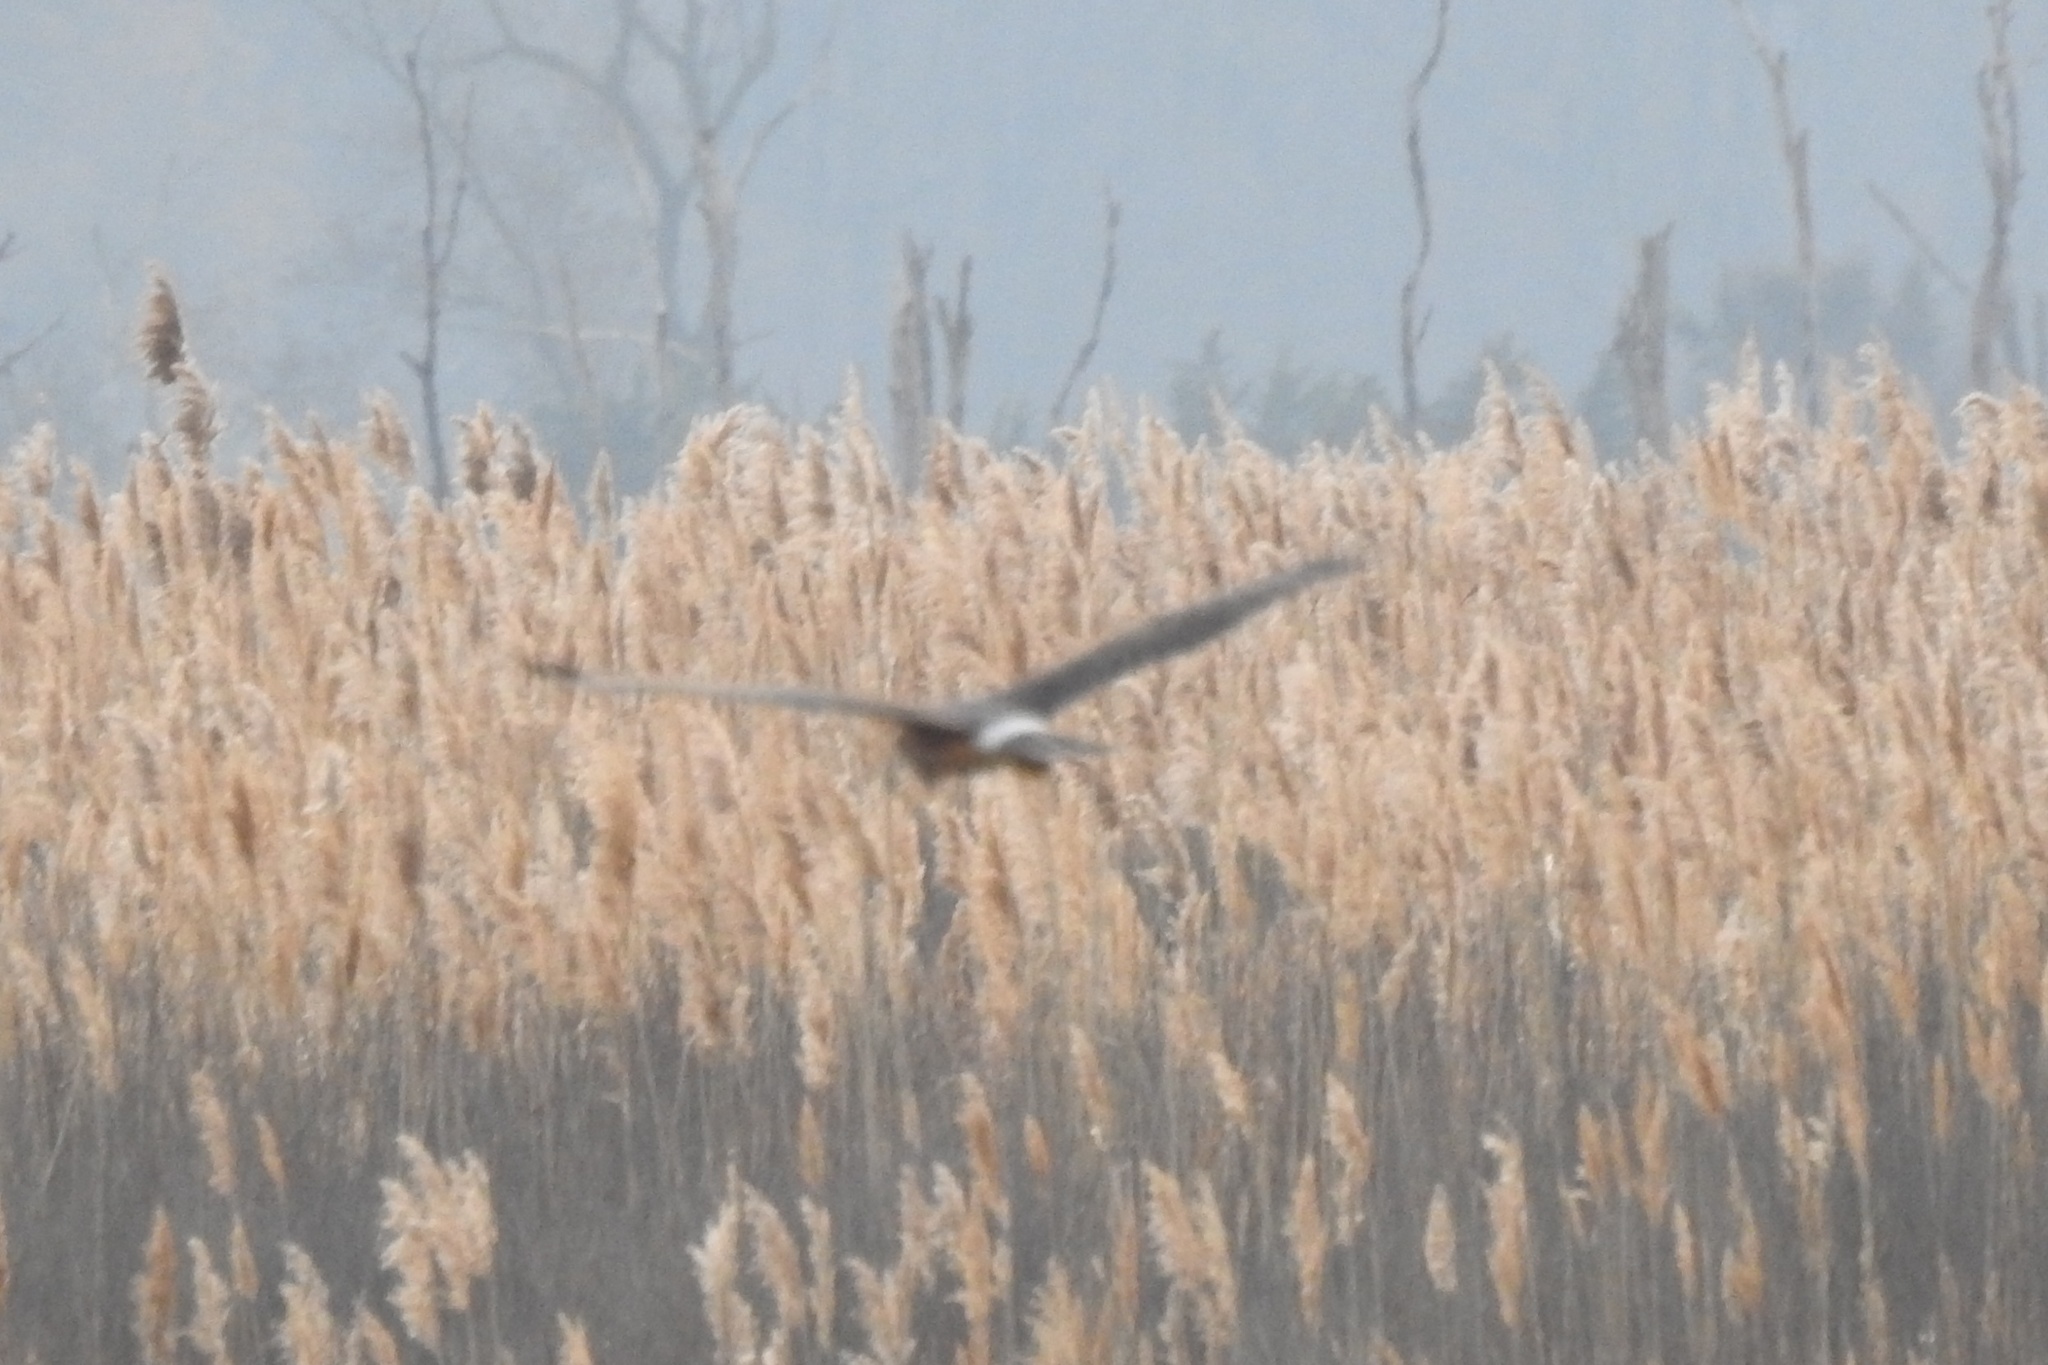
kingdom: Animalia
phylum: Chordata
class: Aves
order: Accipitriformes
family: Accipitridae
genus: Circus
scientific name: Circus cyaneus
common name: Hen harrier
